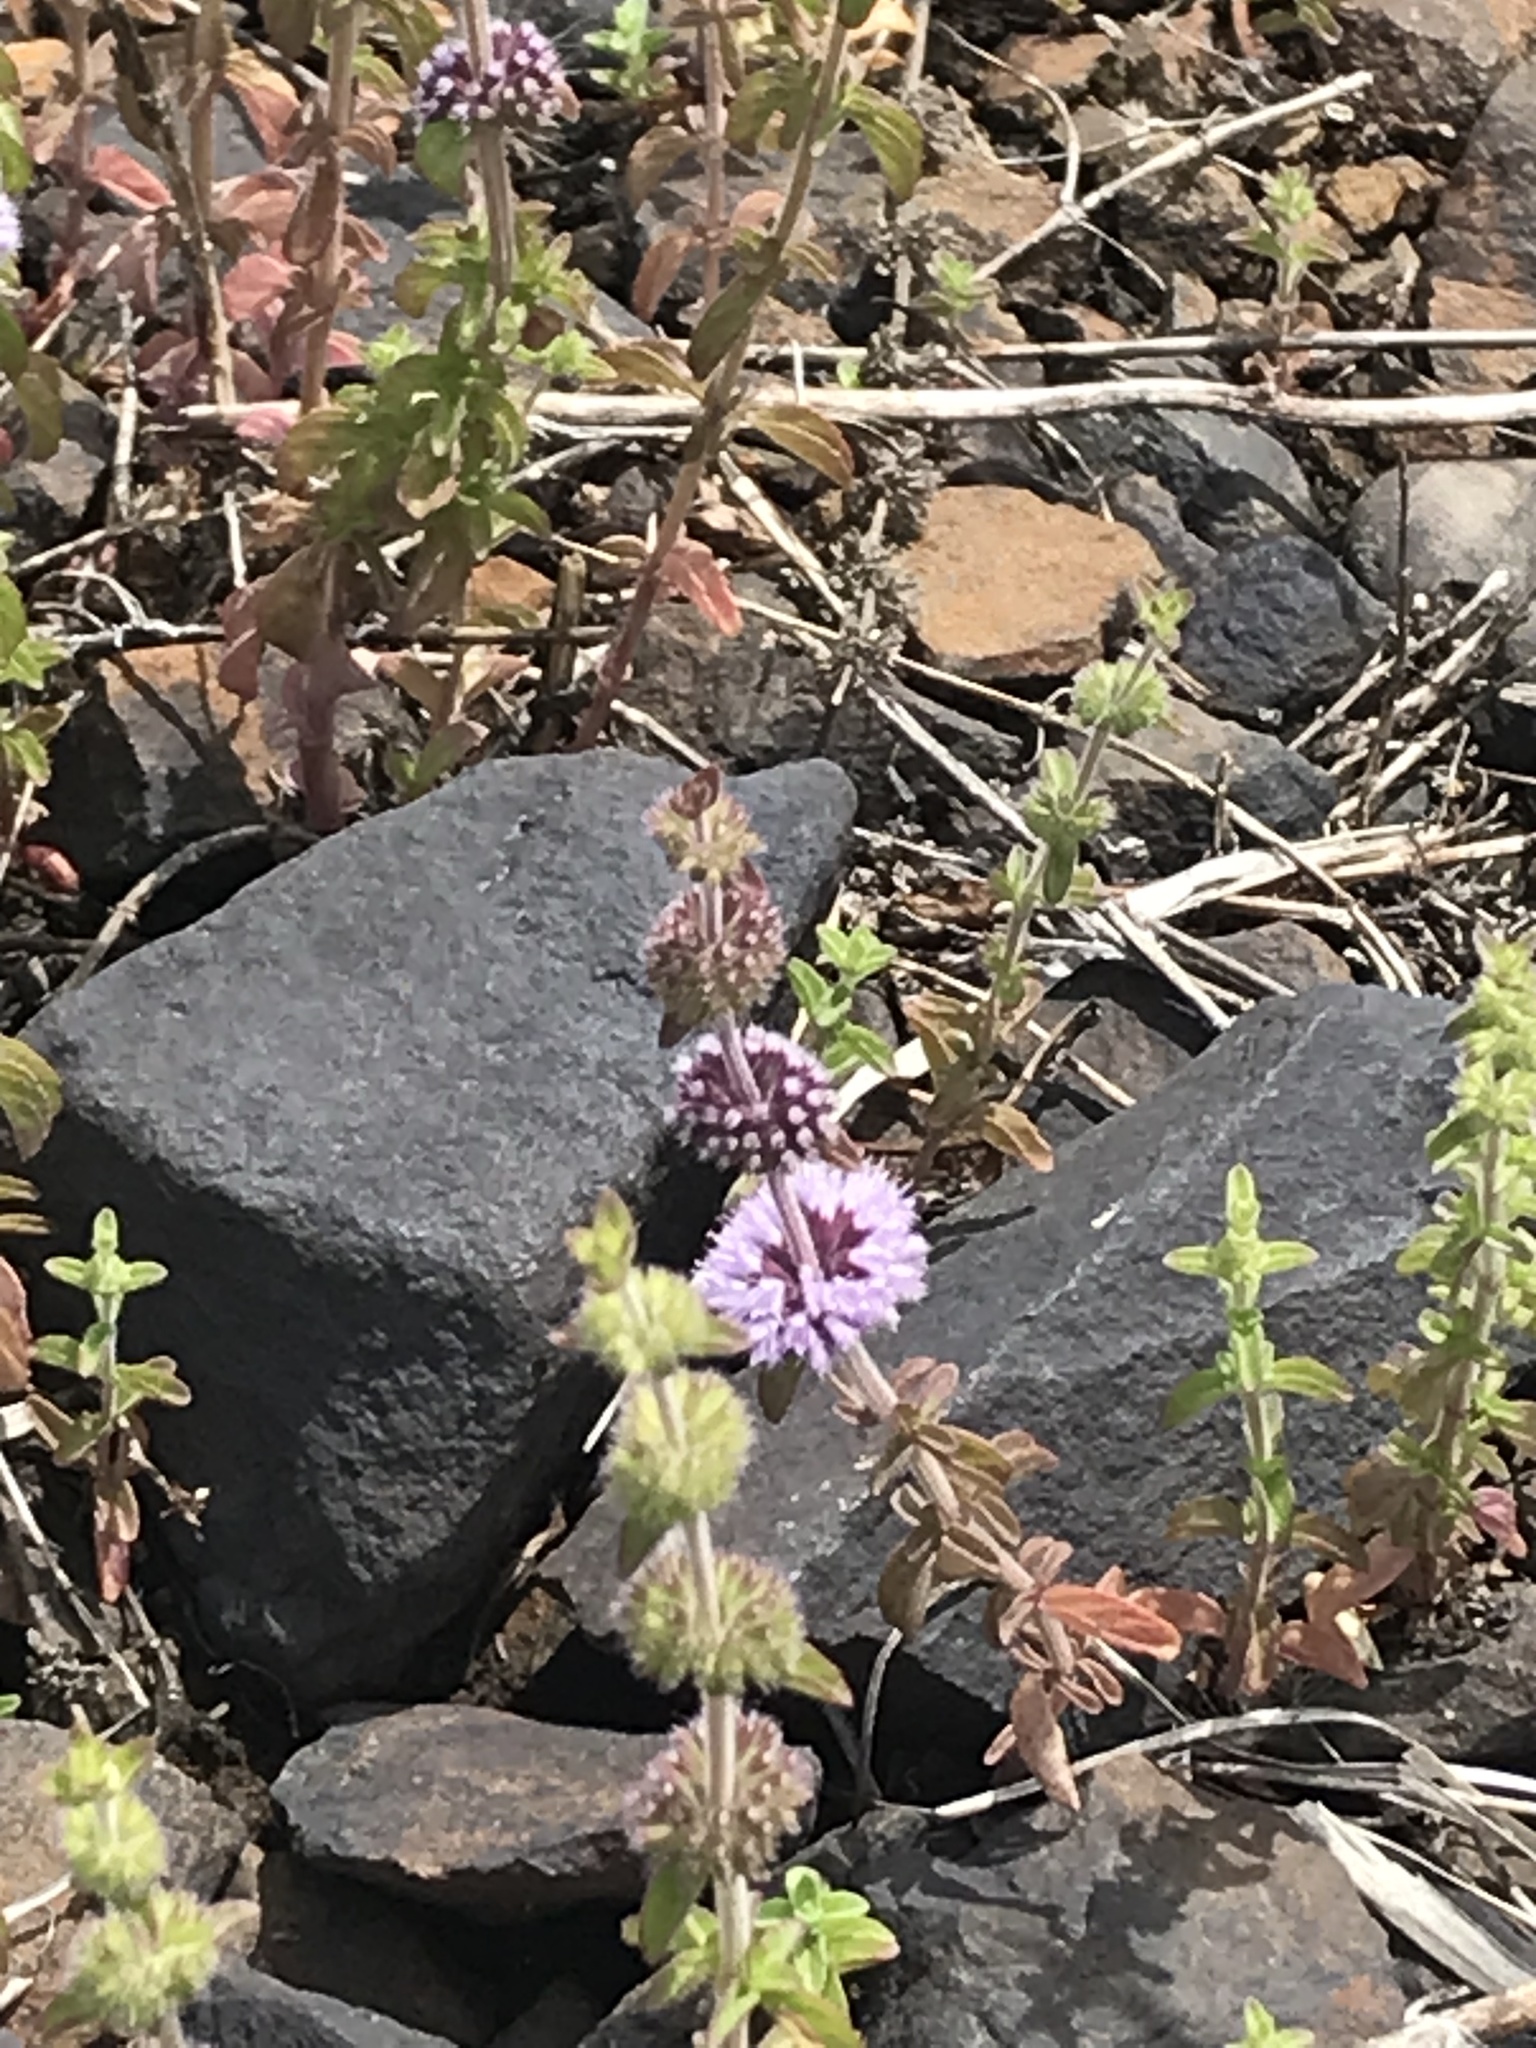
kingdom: Plantae
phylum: Tracheophyta
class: Magnoliopsida
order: Lamiales
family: Lamiaceae
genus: Mentha
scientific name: Mentha pulegium
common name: Pennyroyal
